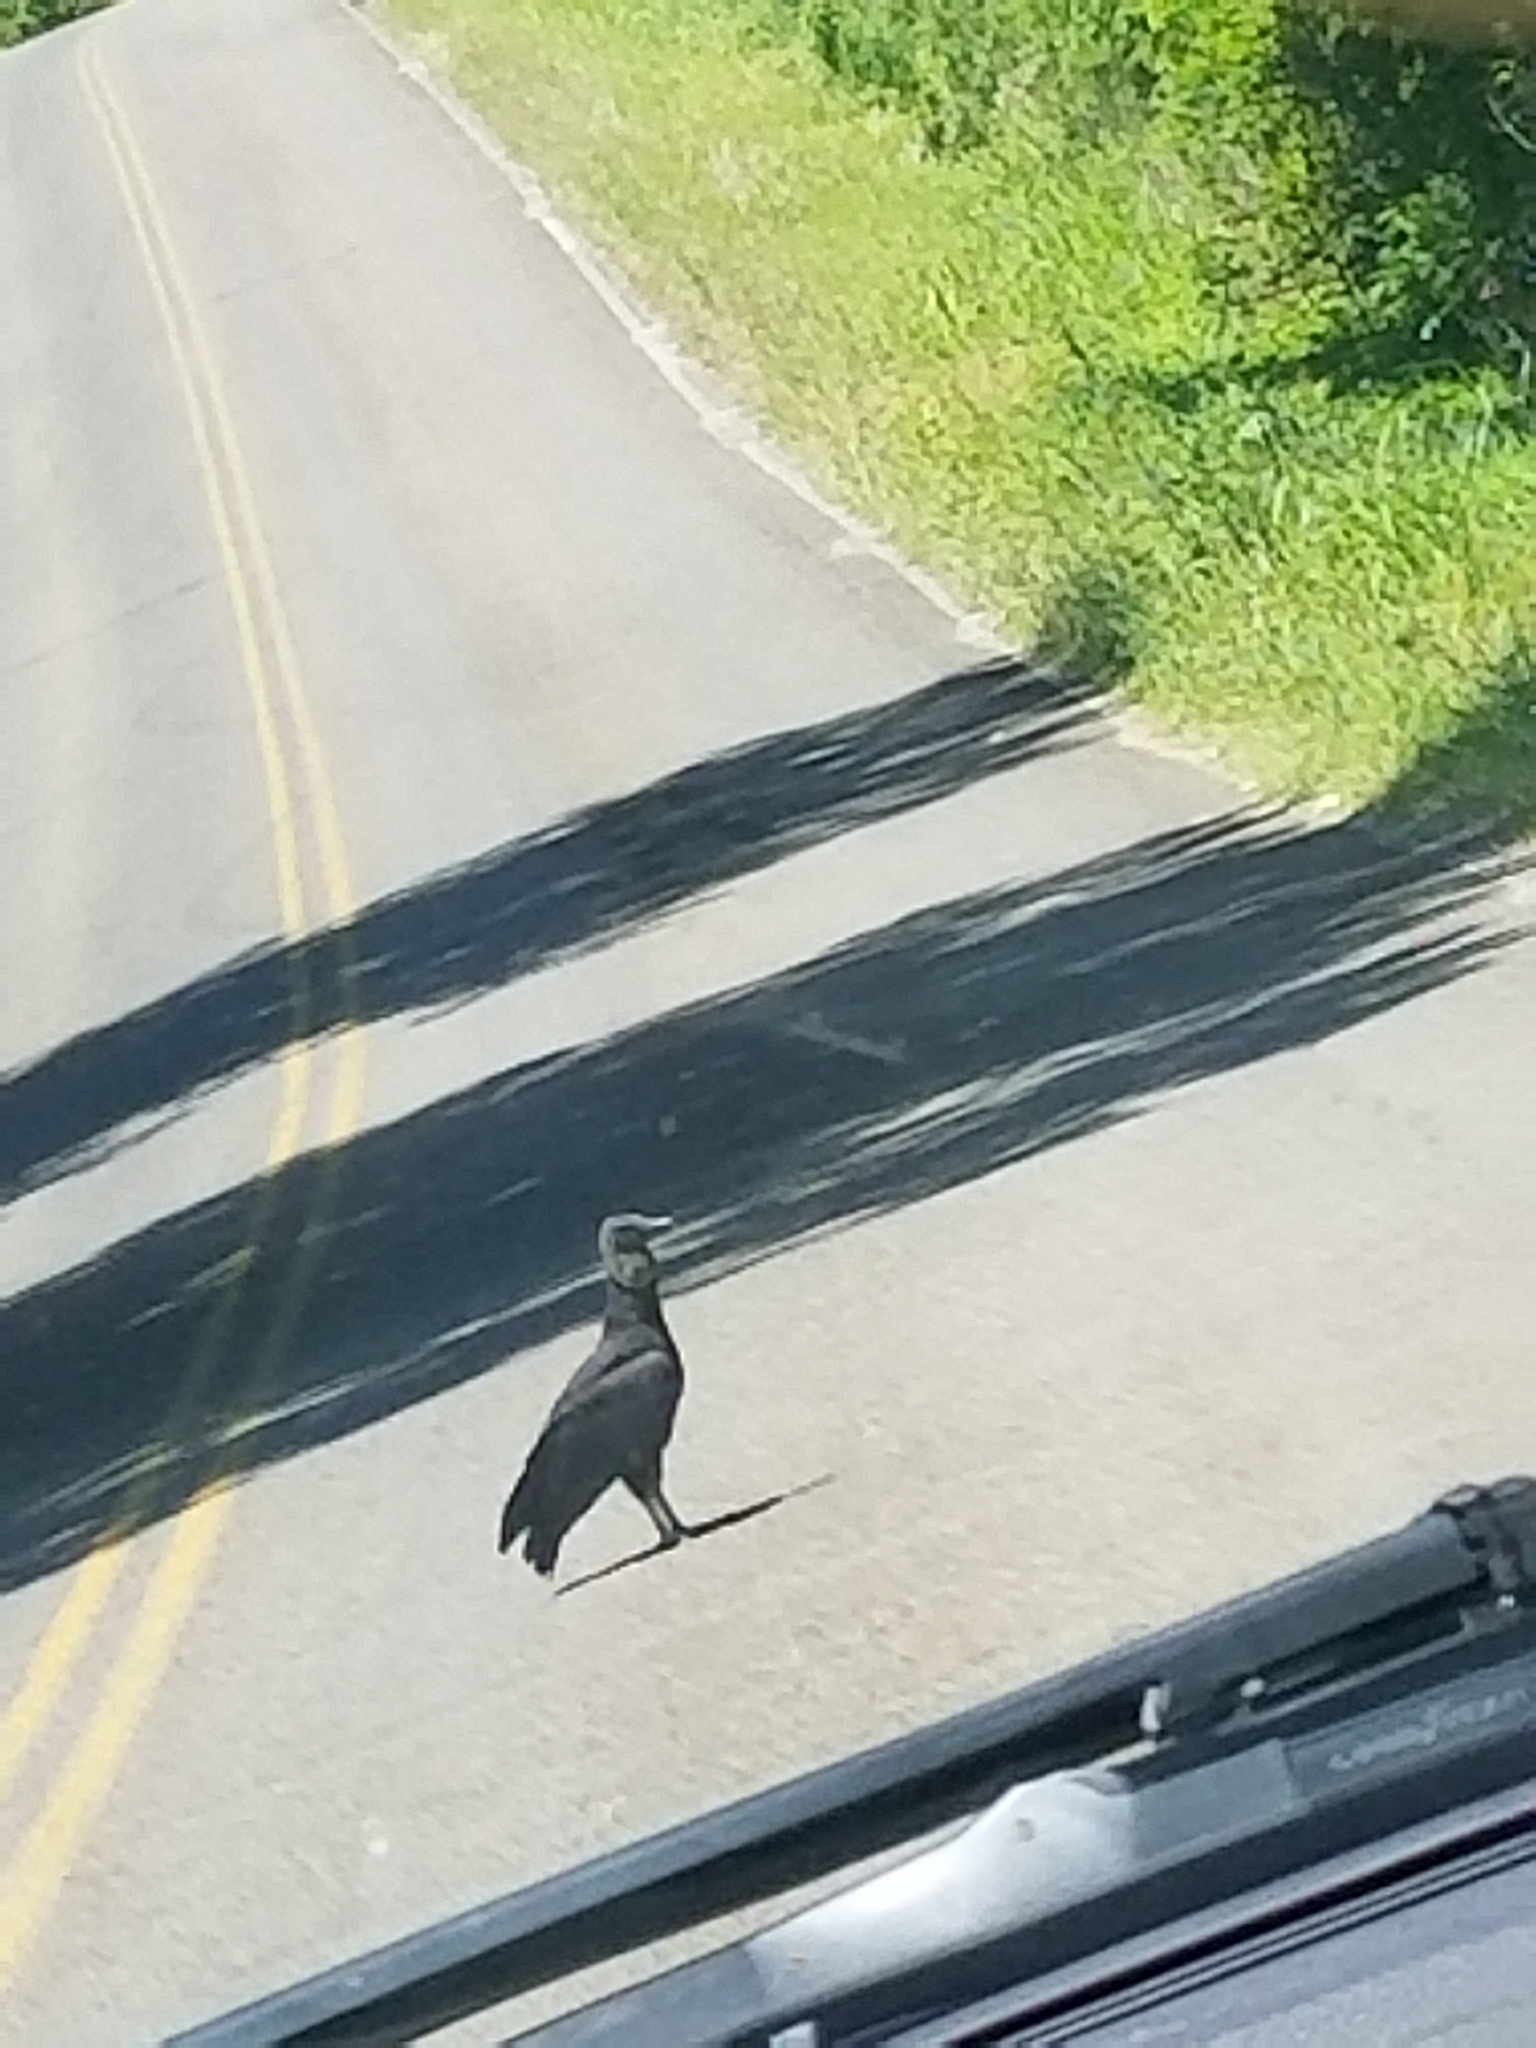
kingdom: Animalia
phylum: Chordata
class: Aves
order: Accipitriformes
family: Cathartidae
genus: Coragyps
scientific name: Coragyps atratus
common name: Black vulture
